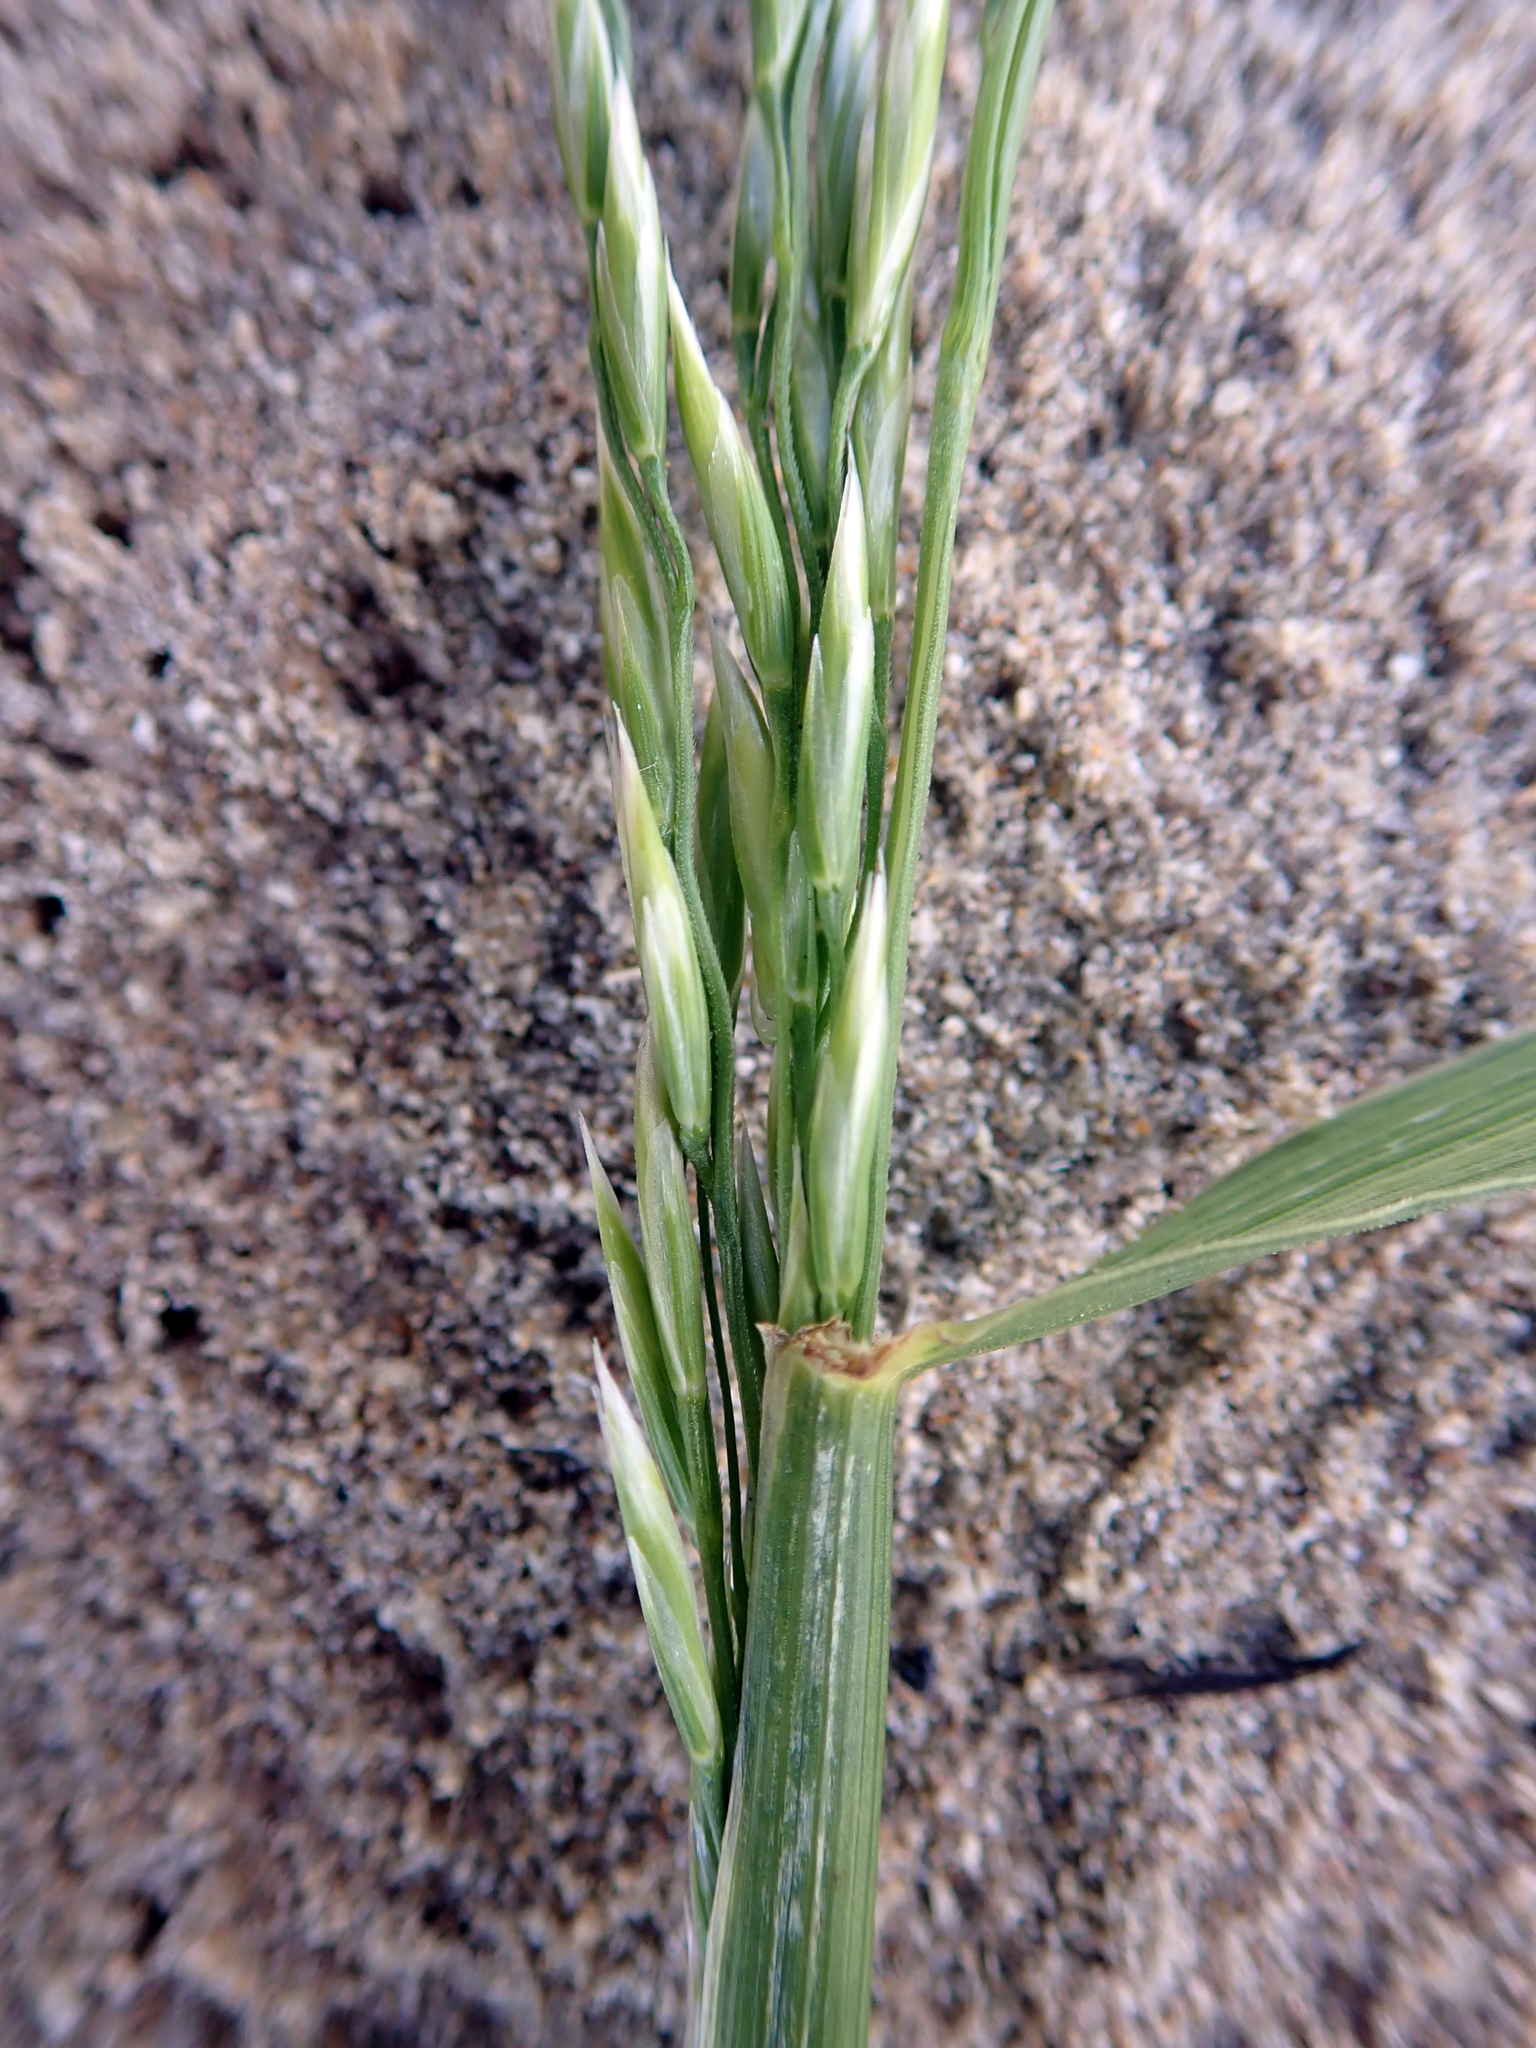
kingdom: Plantae
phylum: Tracheophyta
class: Liliopsida
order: Poales
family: Poaceae
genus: Lolium
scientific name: Lolium arundinaceum
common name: Reed fescue
